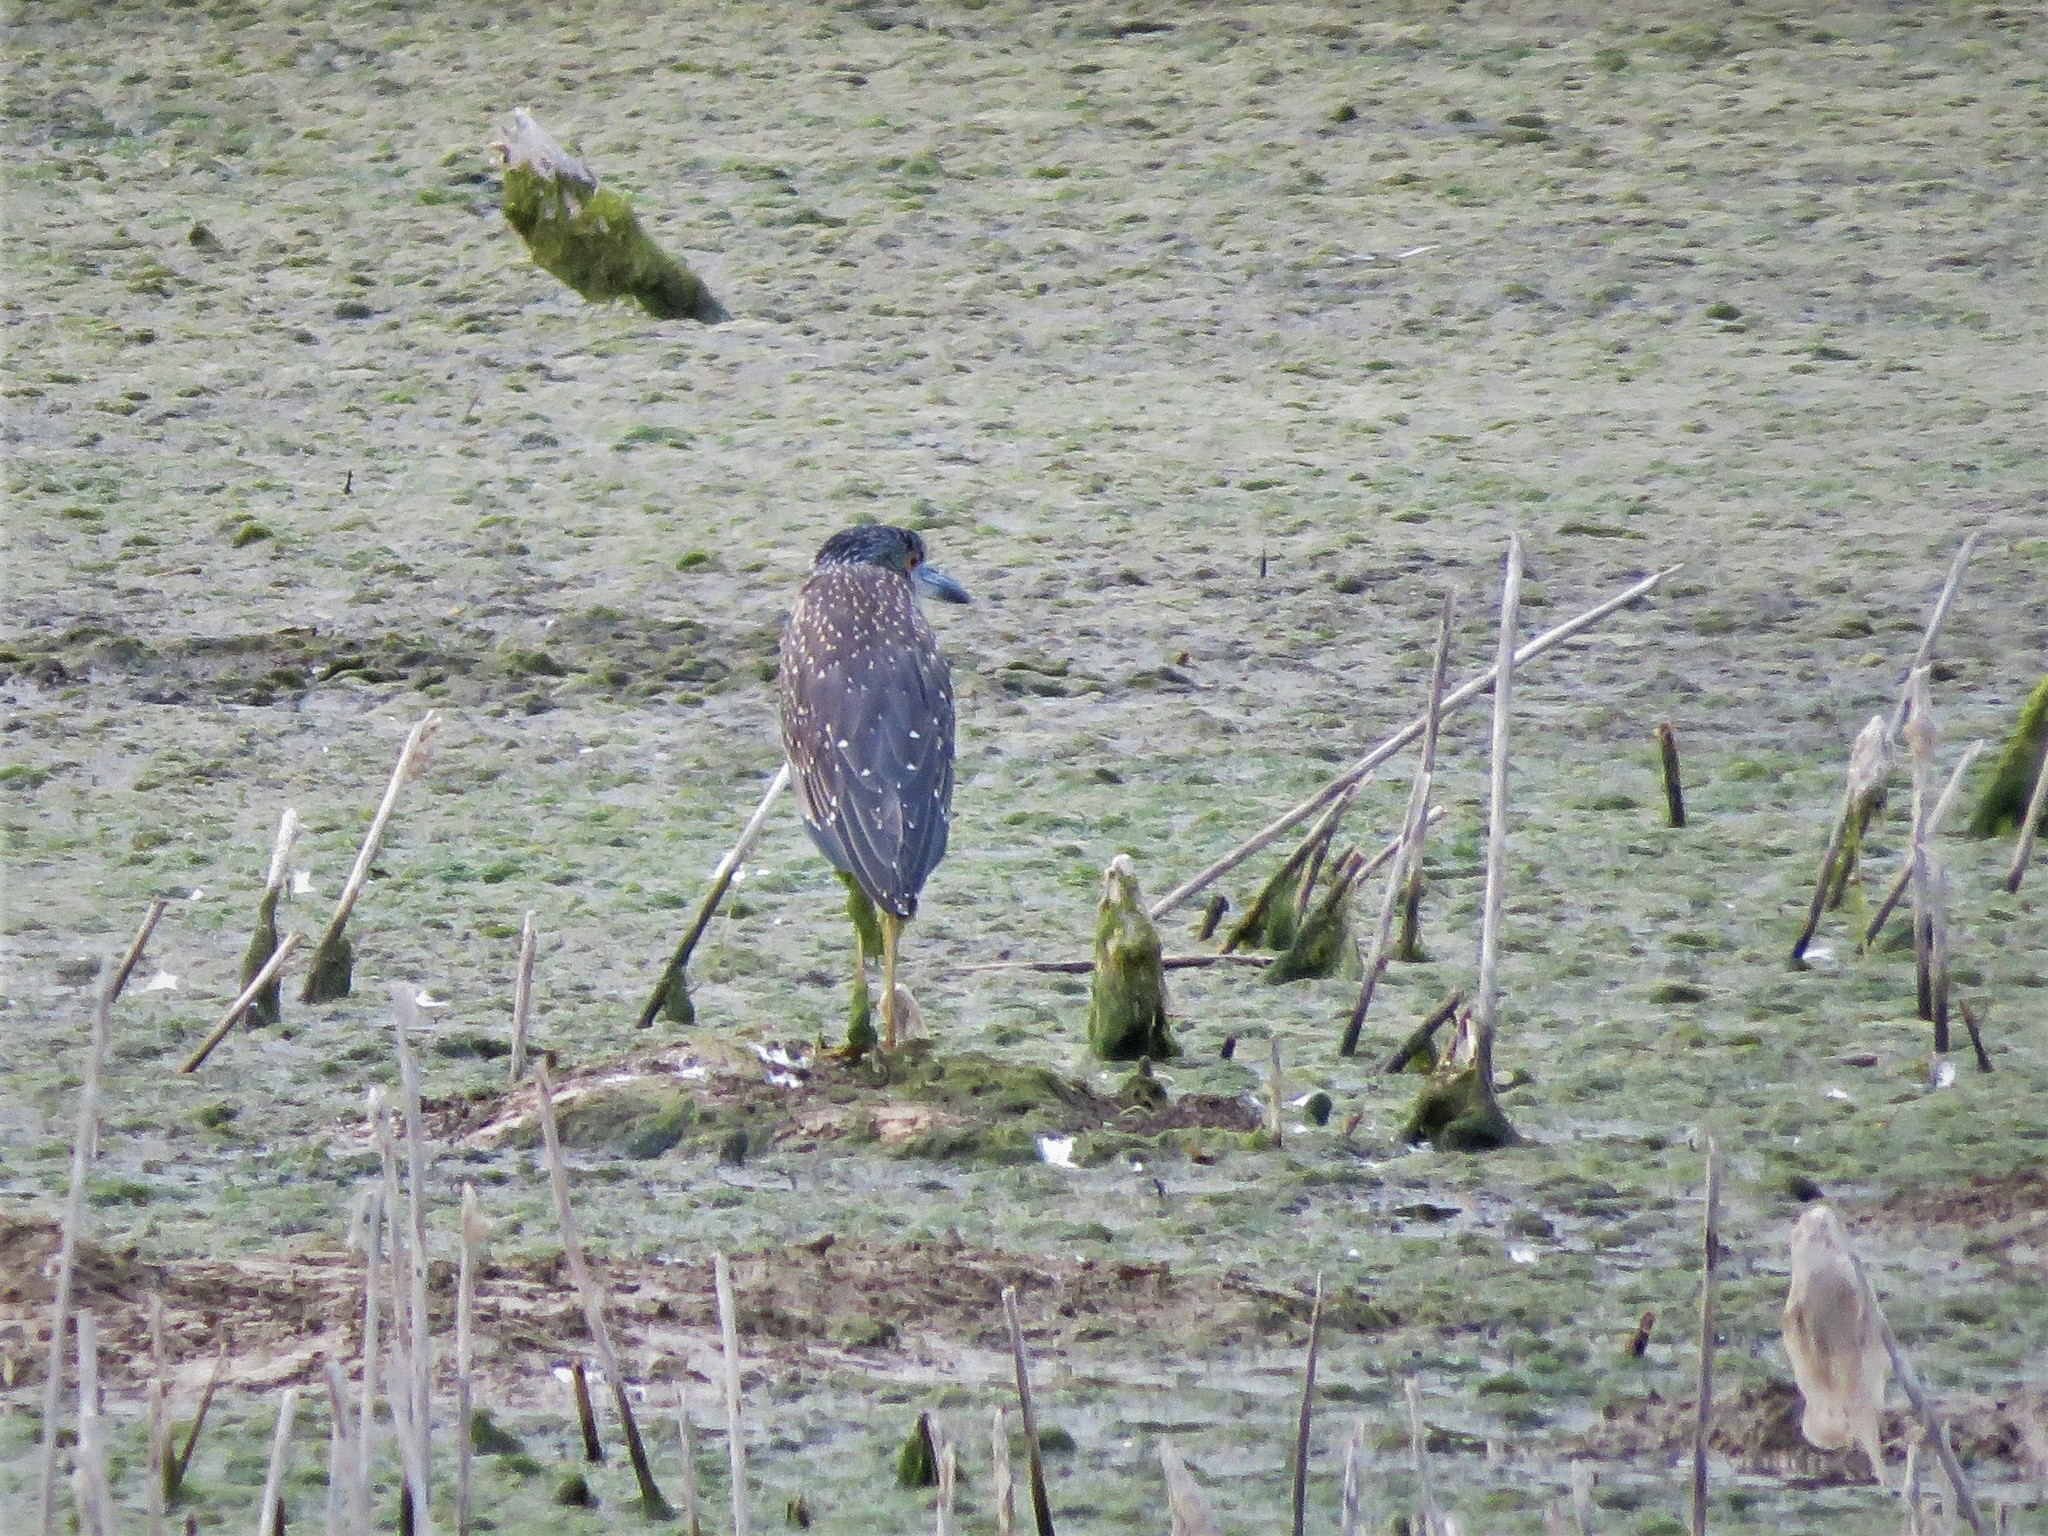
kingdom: Animalia
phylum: Chordata
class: Aves
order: Pelecaniformes
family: Ardeidae
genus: Nyctanassa
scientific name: Nyctanassa violacea
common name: Yellow-crowned night heron
